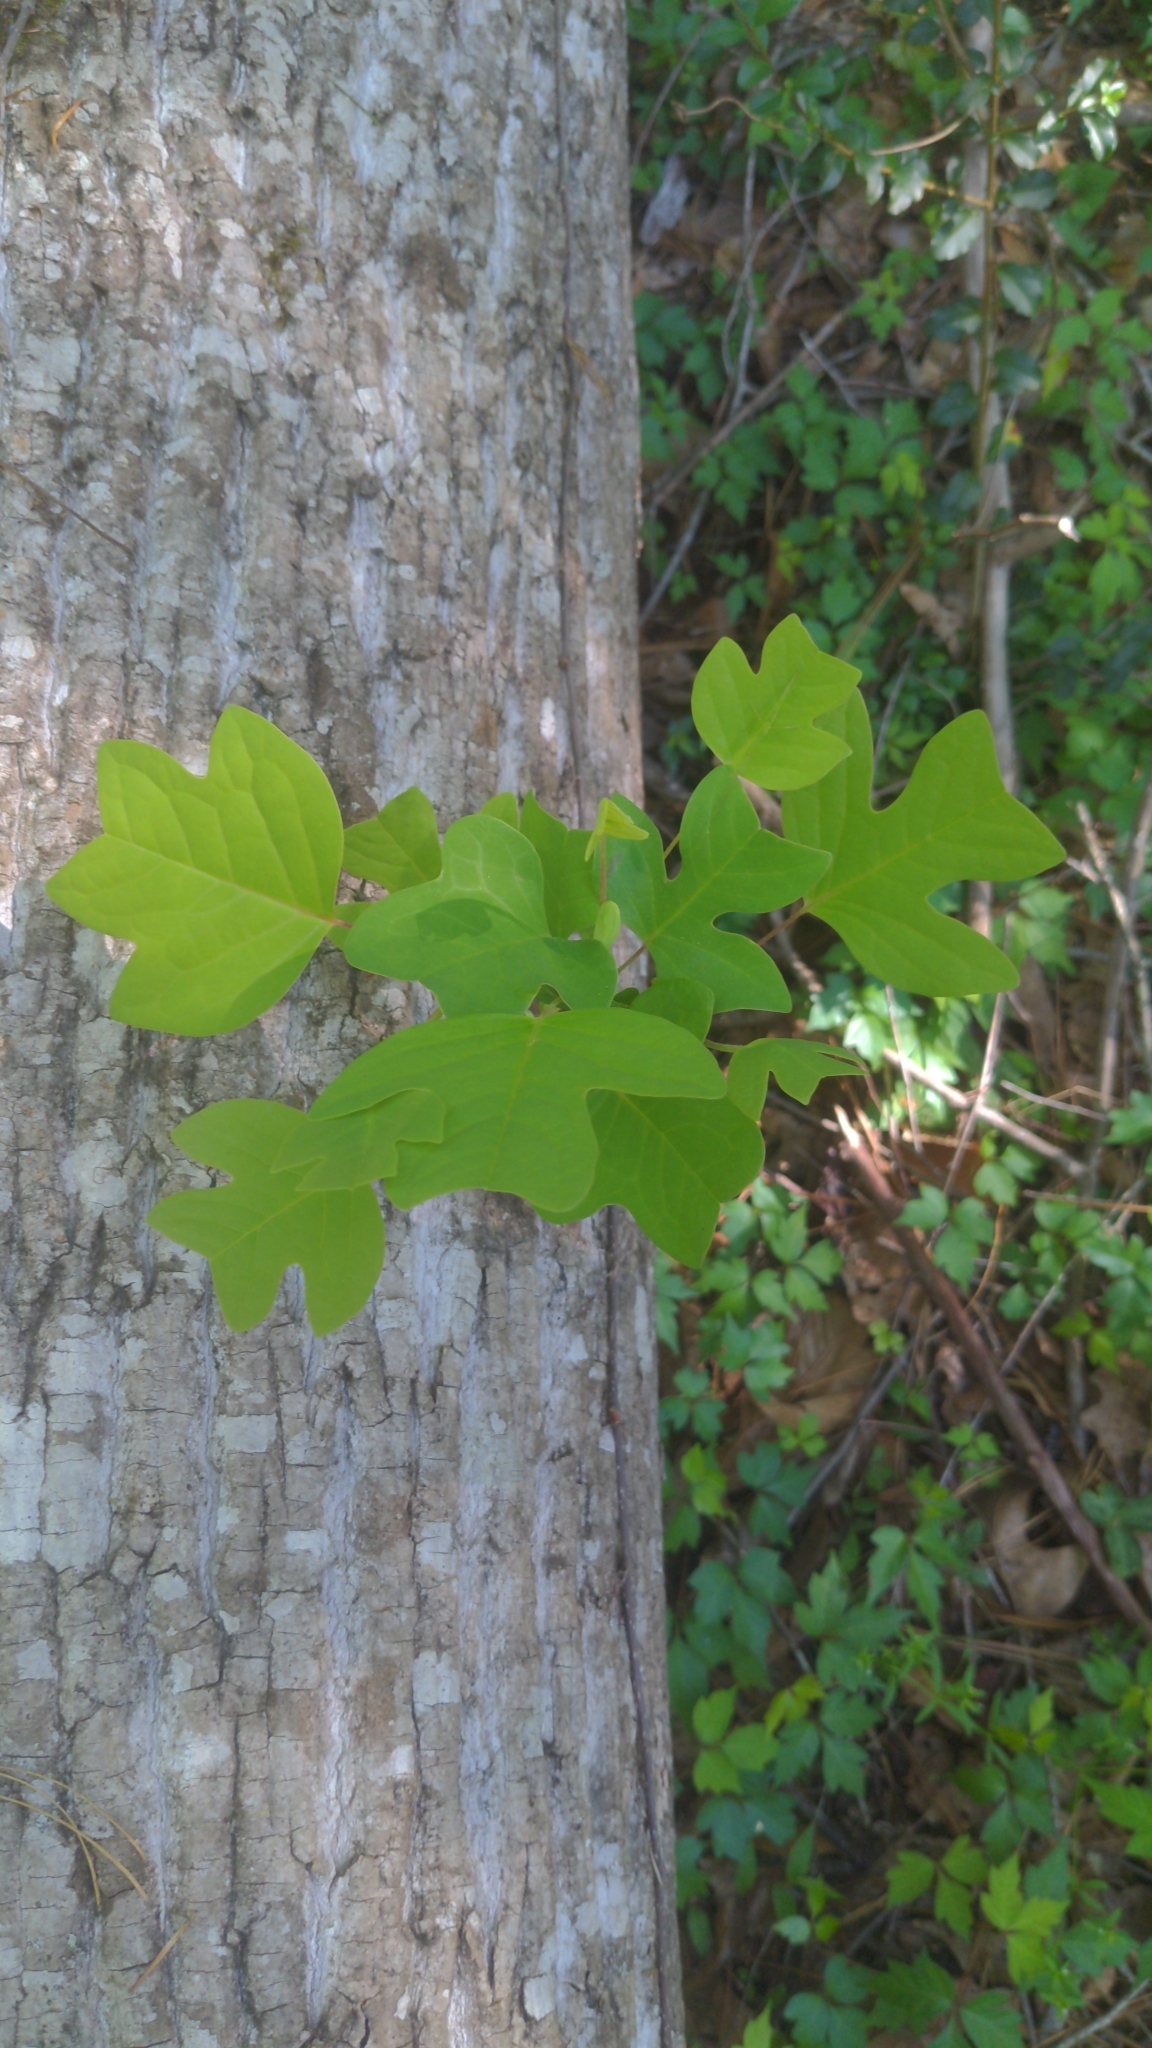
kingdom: Plantae
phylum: Tracheophyta
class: Magnoliopsida
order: Magnoliales
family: Magnoliaceae
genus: Liriodendron
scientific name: Liriodendron tulipifera
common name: Tulip tree
